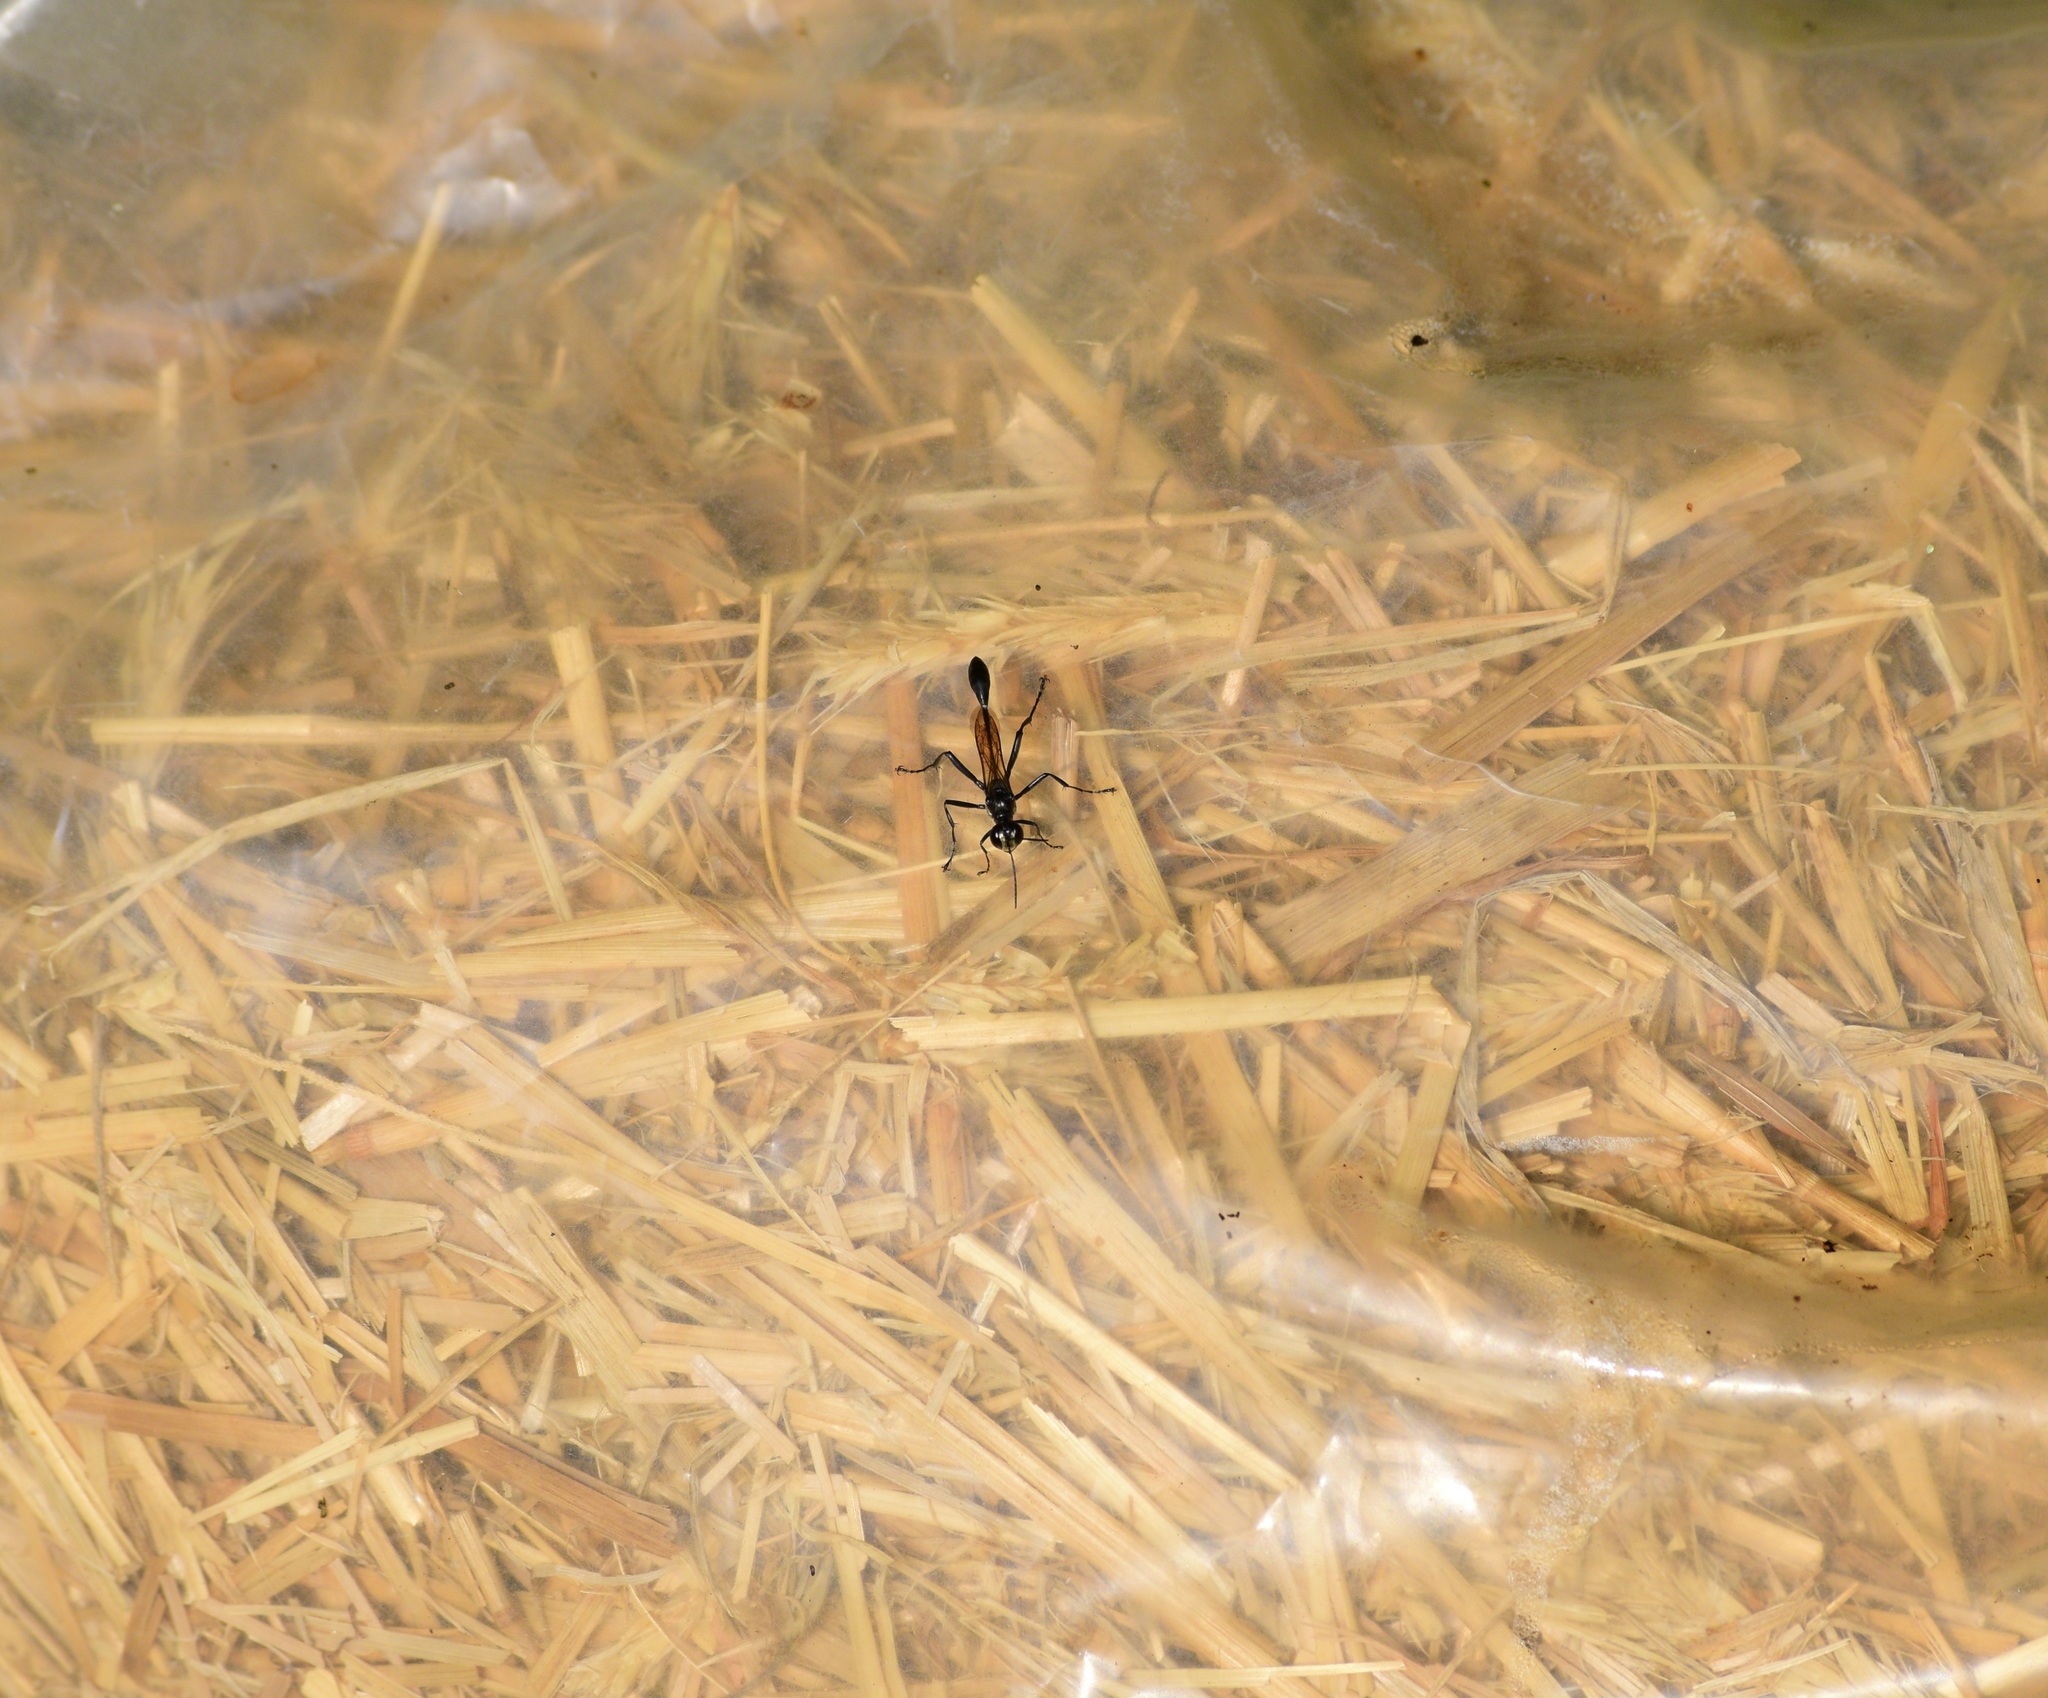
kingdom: Animalia
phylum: Arthropoda
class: Insecta
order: Hymenoptera
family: Sphecidae
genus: Eremnophila
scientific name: Eremnophila aureonotata
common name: Gold-marked thread-waisted wasp
